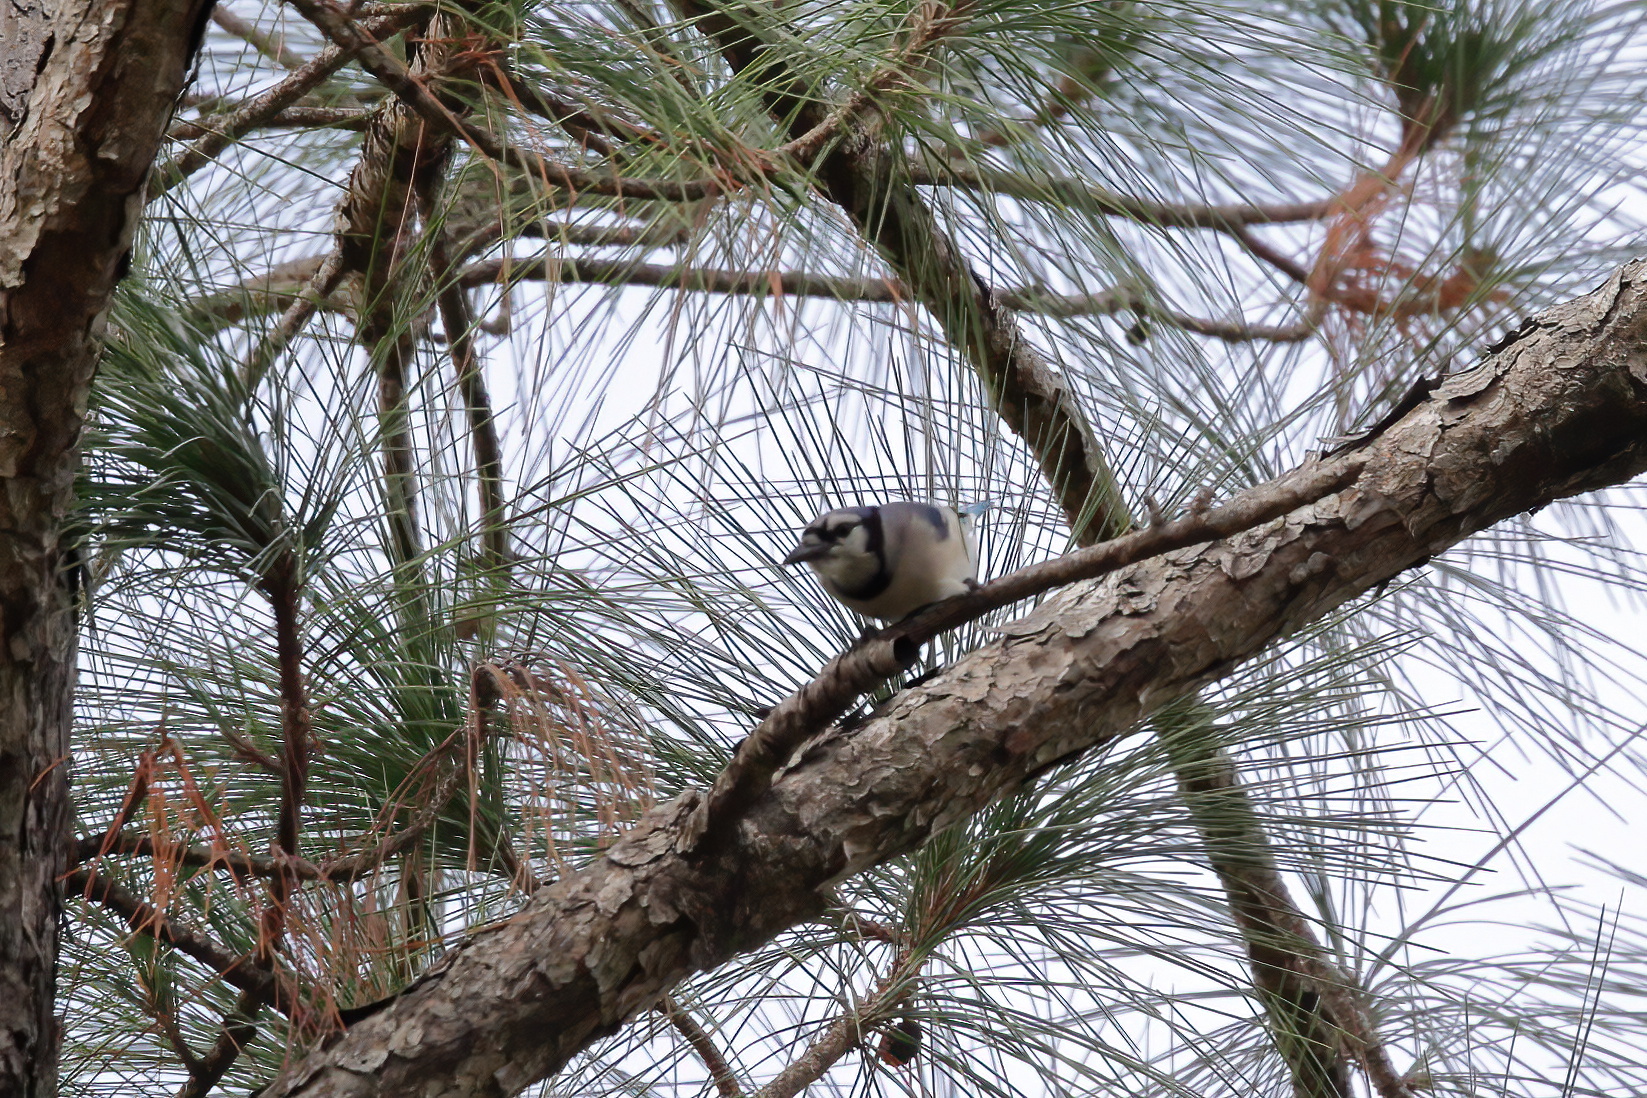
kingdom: Animalia
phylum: Chordata
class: Aves
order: Passeriformes
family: Corvidae
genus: Cyanocitta
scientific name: Cyanocitta cristata
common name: Blue jay
